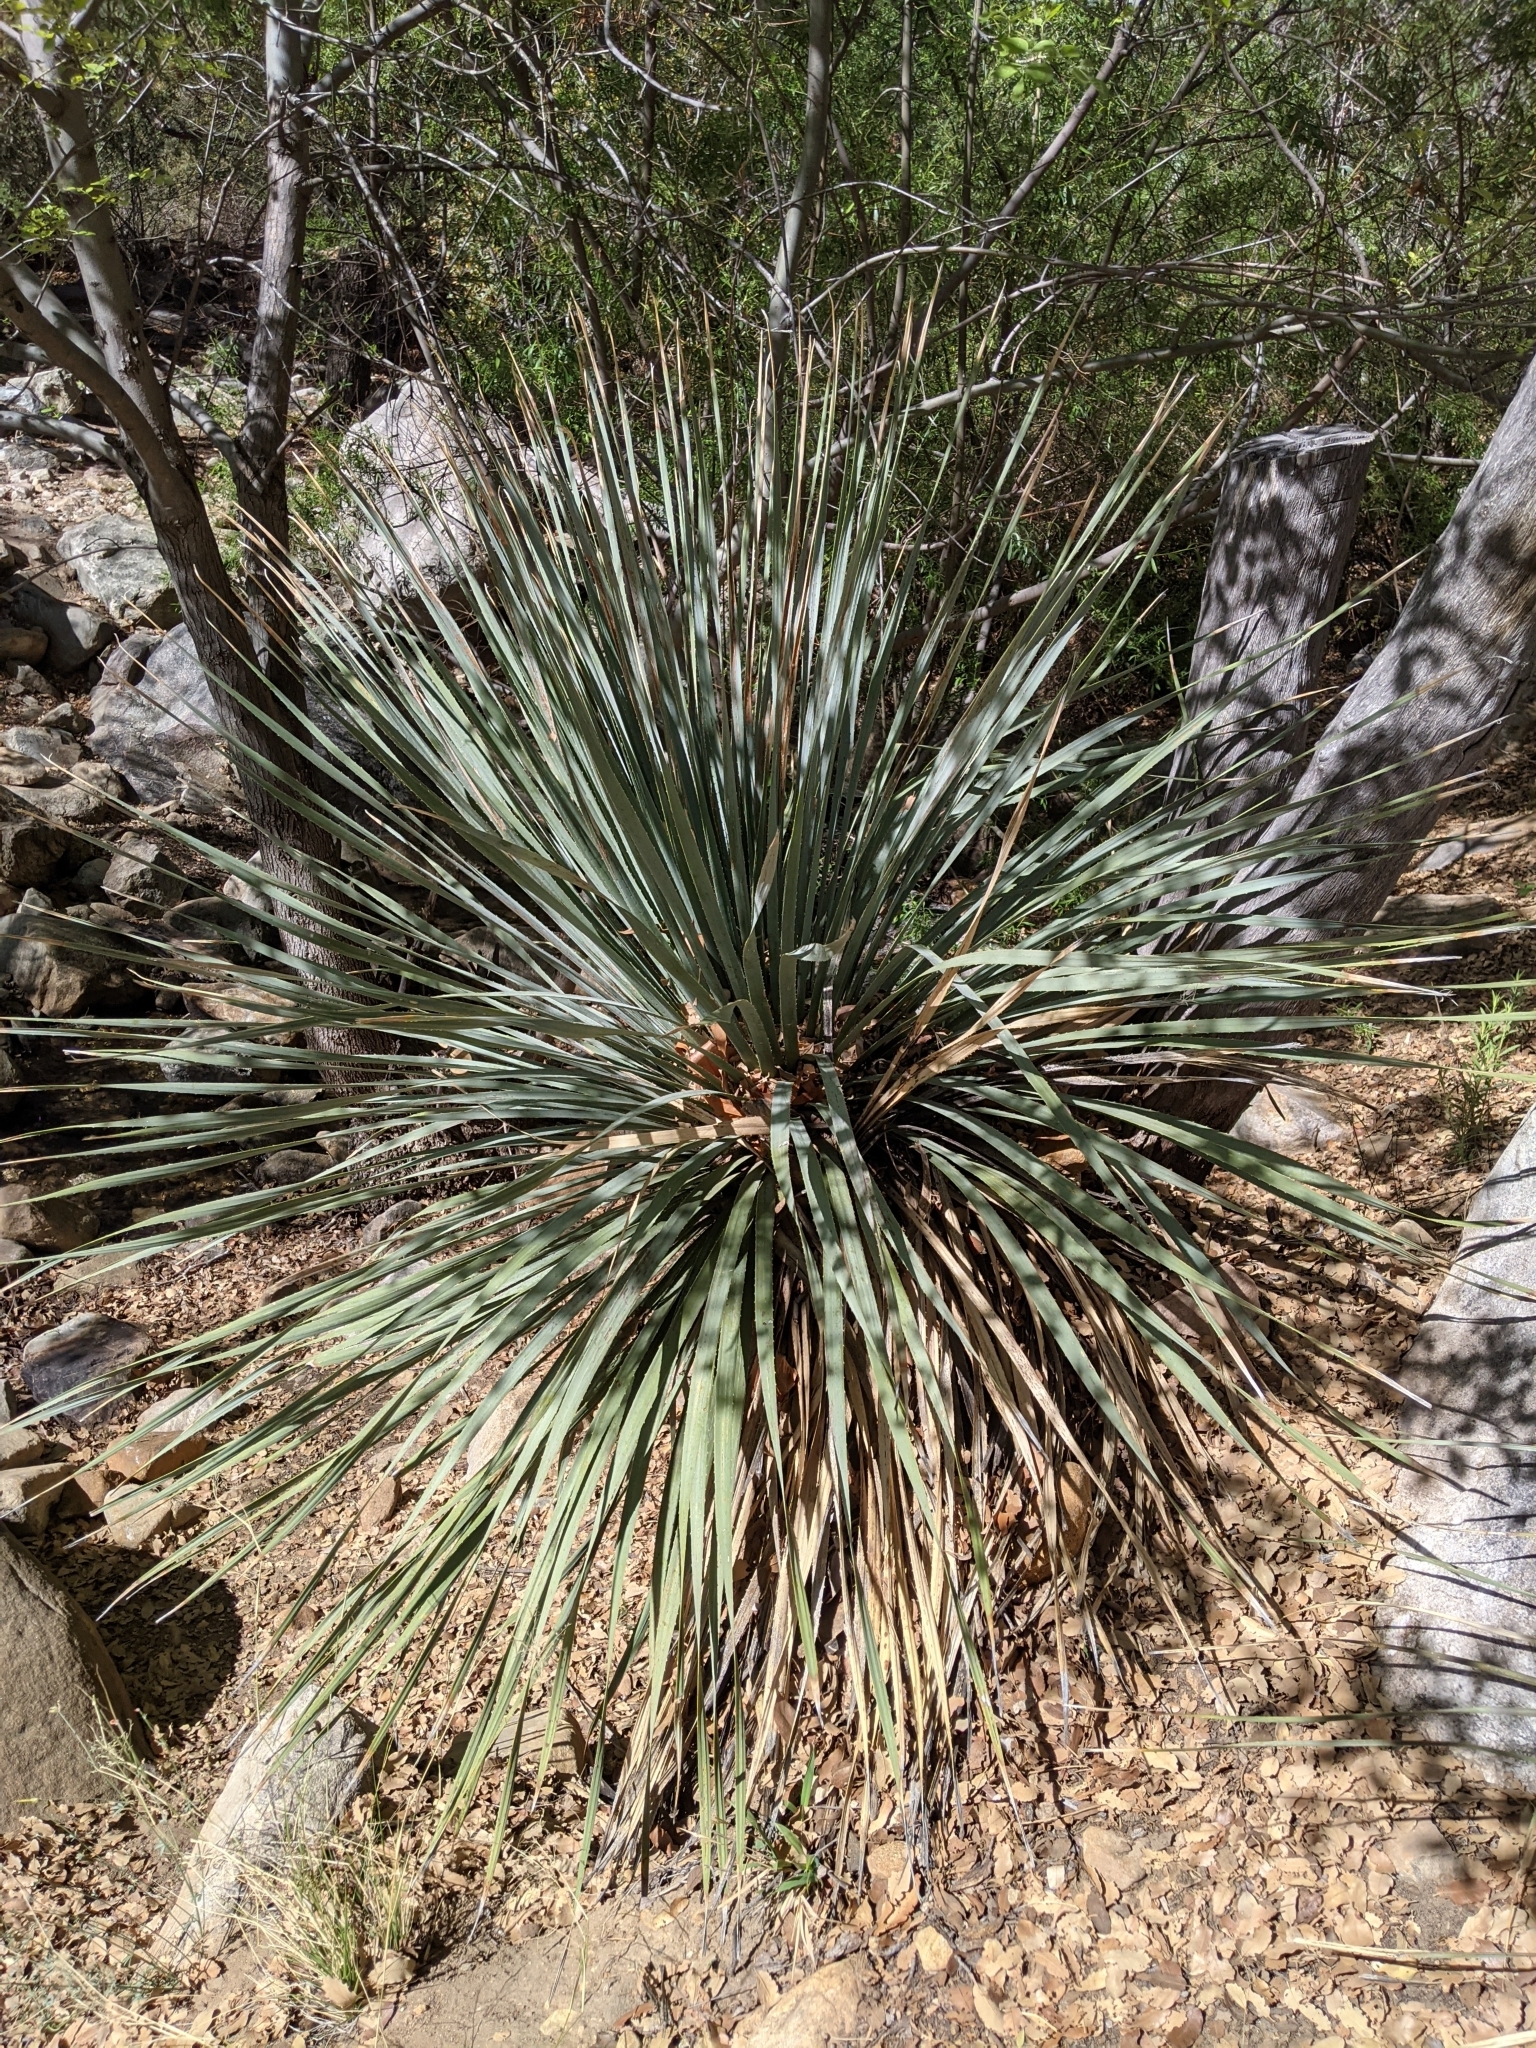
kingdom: Plantae
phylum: Tracheophyta
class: Liliopsida
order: Asparagales
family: Asparagaceae
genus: Dasylirion
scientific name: Dasylirion wheeleri
